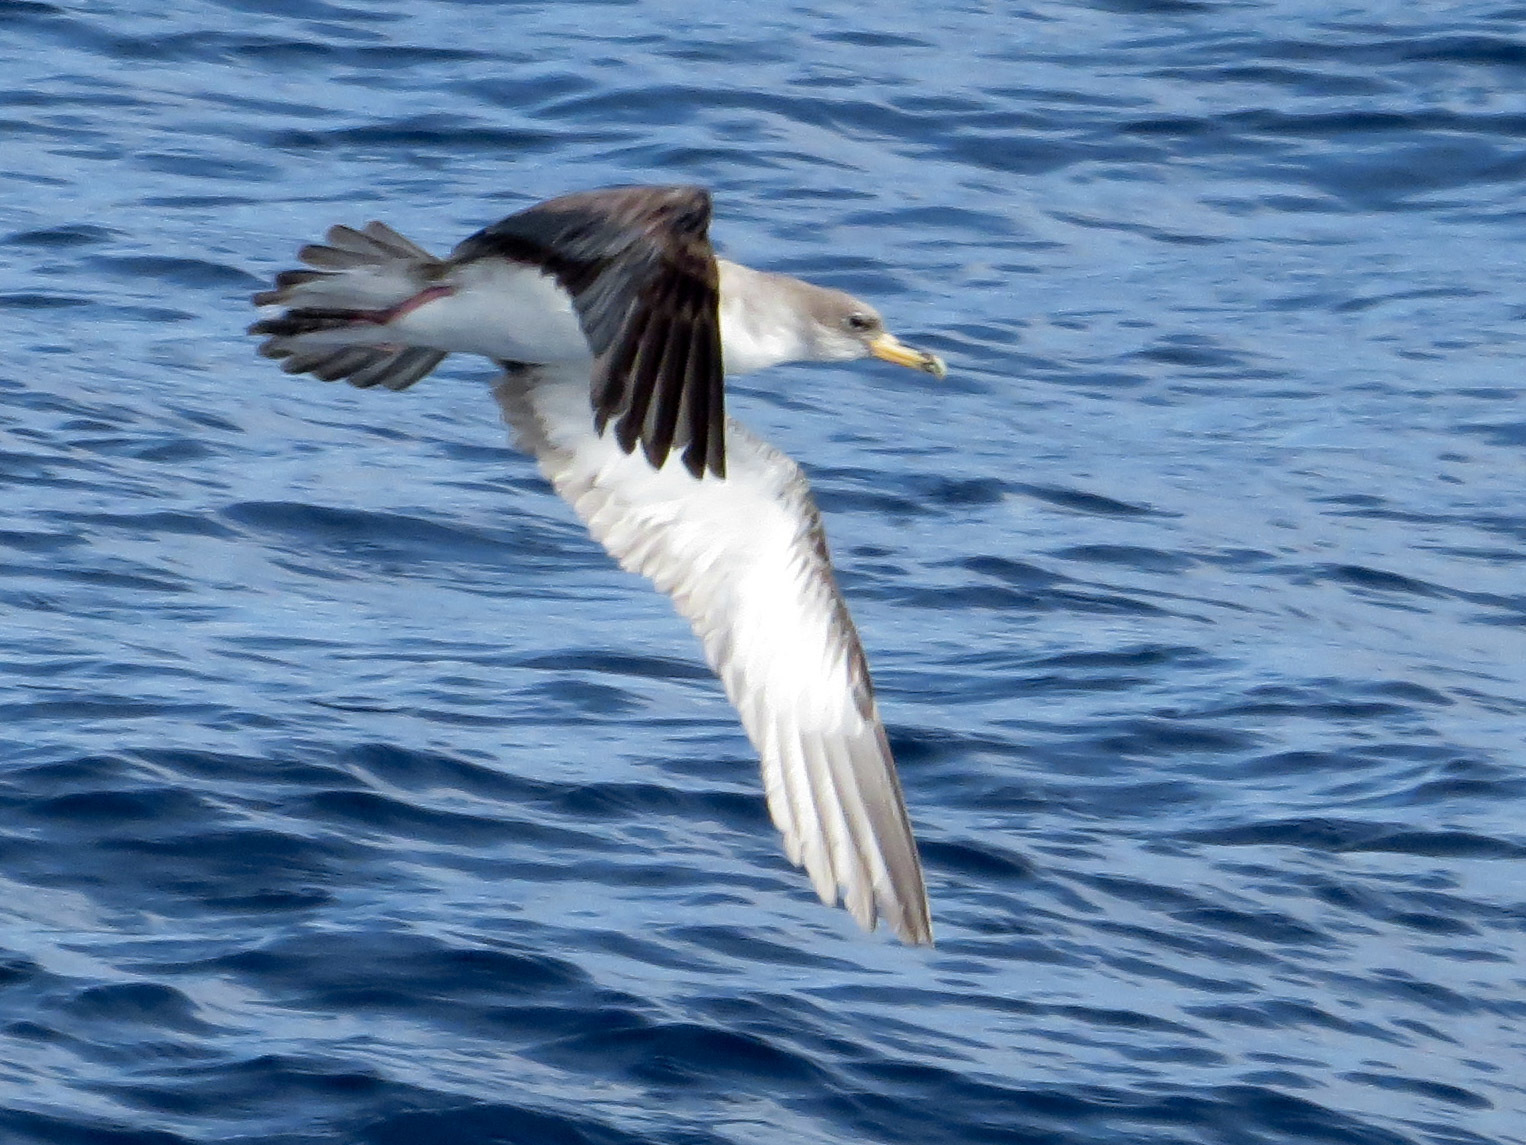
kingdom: Animalia
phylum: Chordata
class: Aves
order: Procellariiformes
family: Procellariidae
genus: Calonectris
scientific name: Calonectris diomedea
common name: Cory's shearwater
